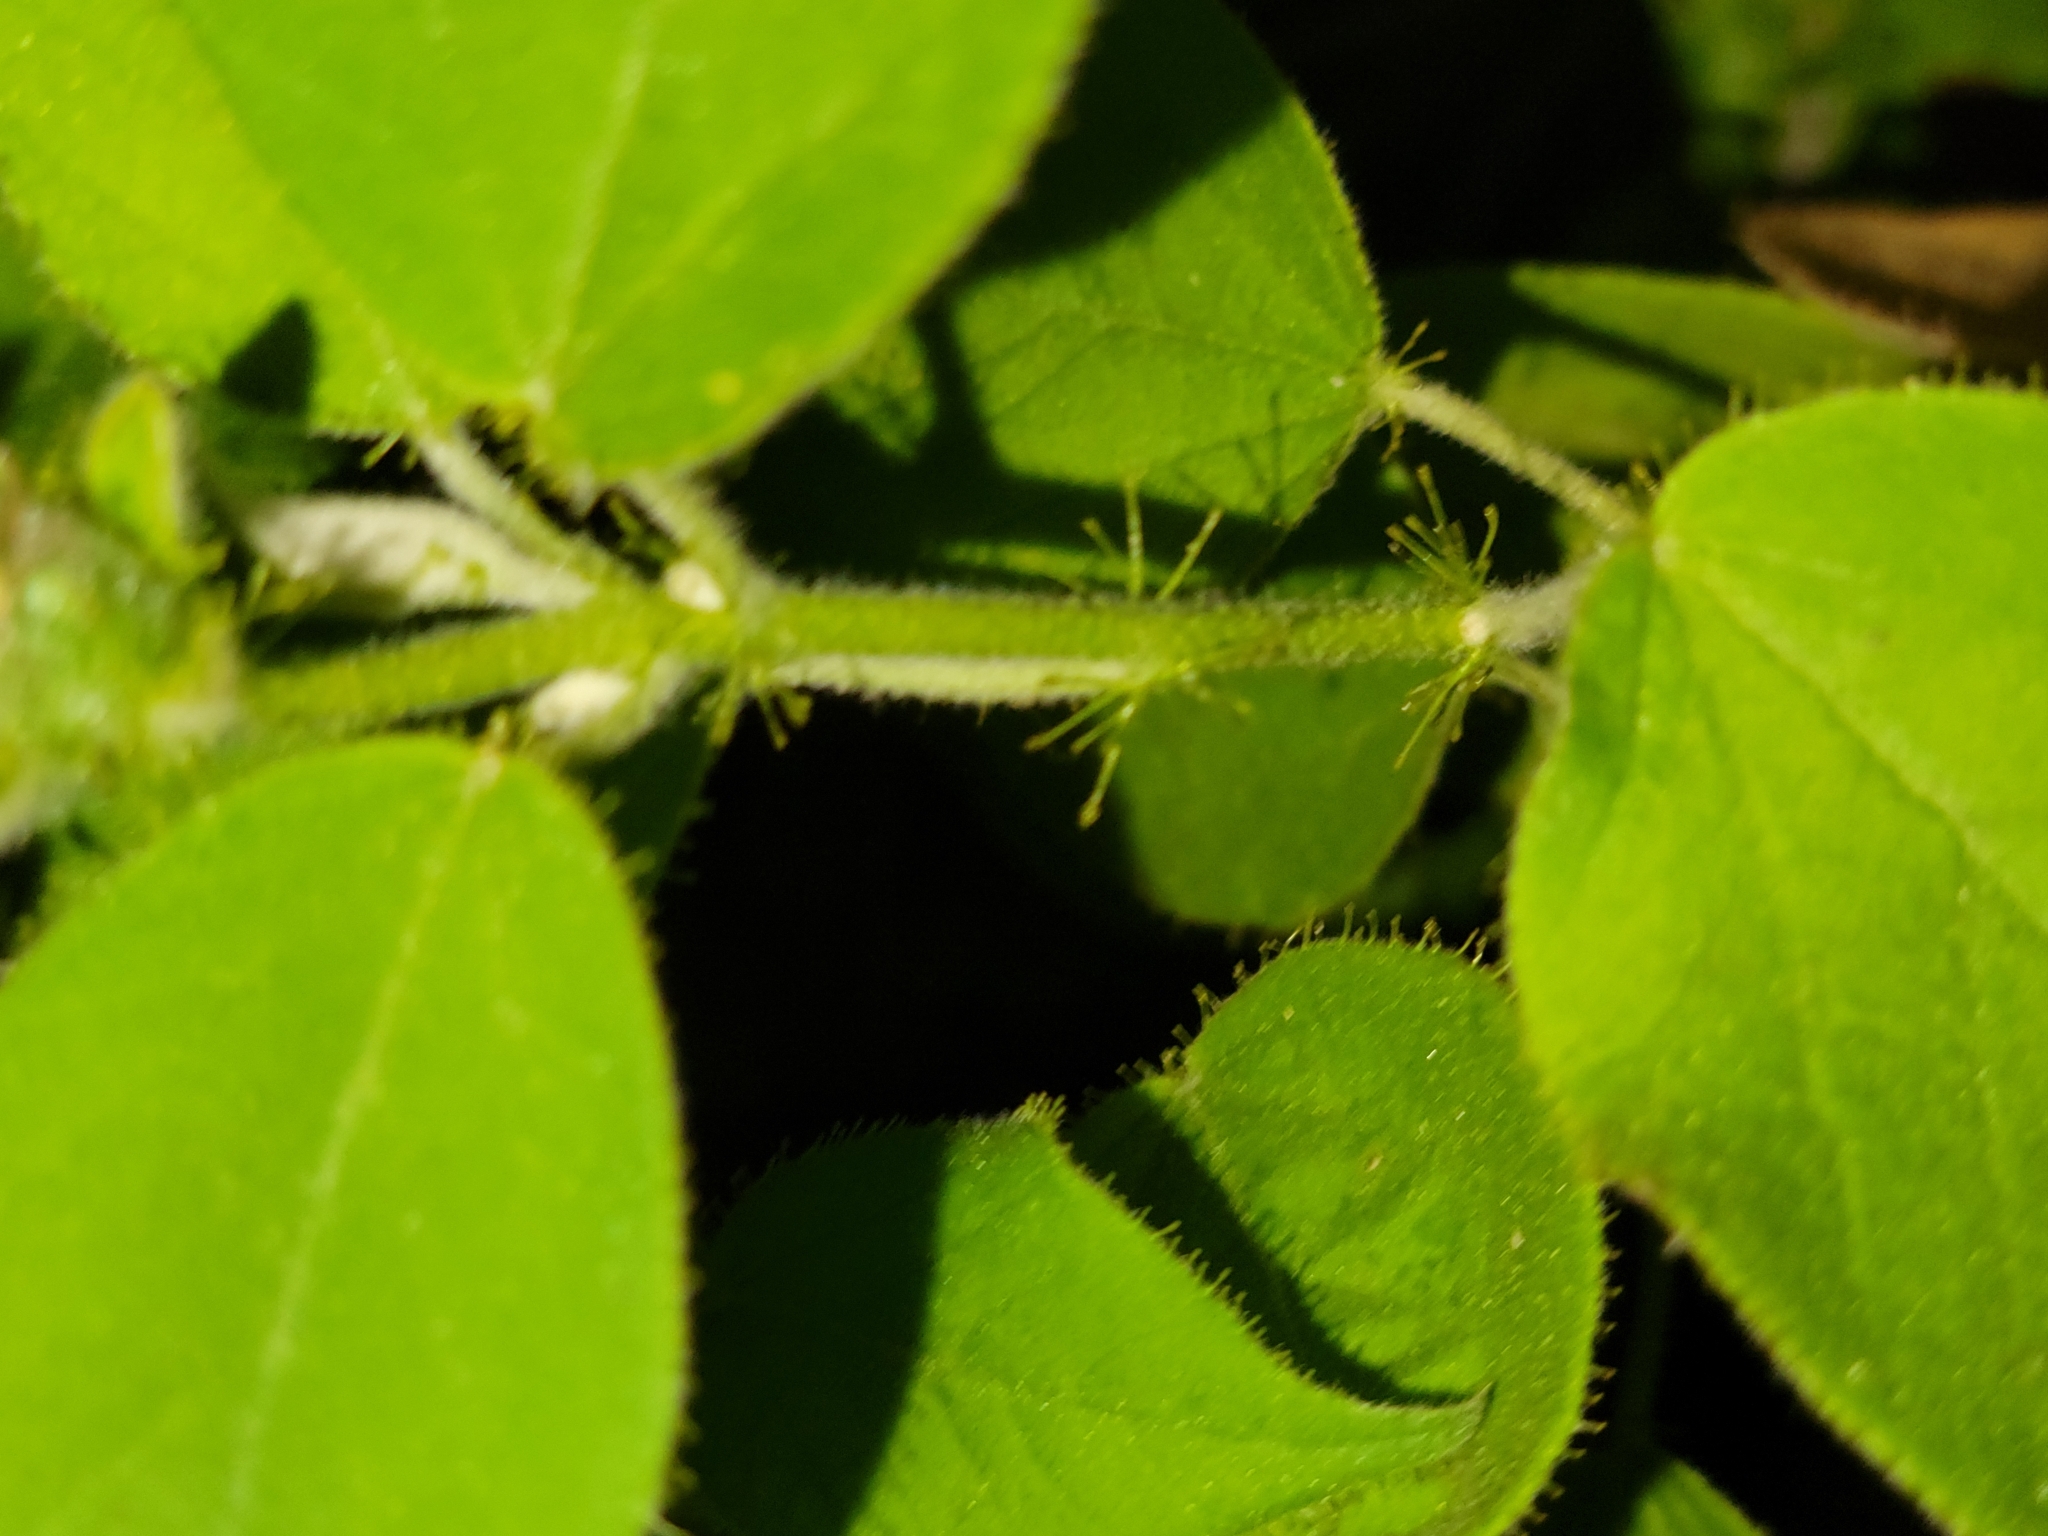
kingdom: Plantae
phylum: Tracheophyta
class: Magnoliopsida
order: Malpighiales
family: Euphorbiaceae
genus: Croton
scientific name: Croton ciliatoglandulifer
